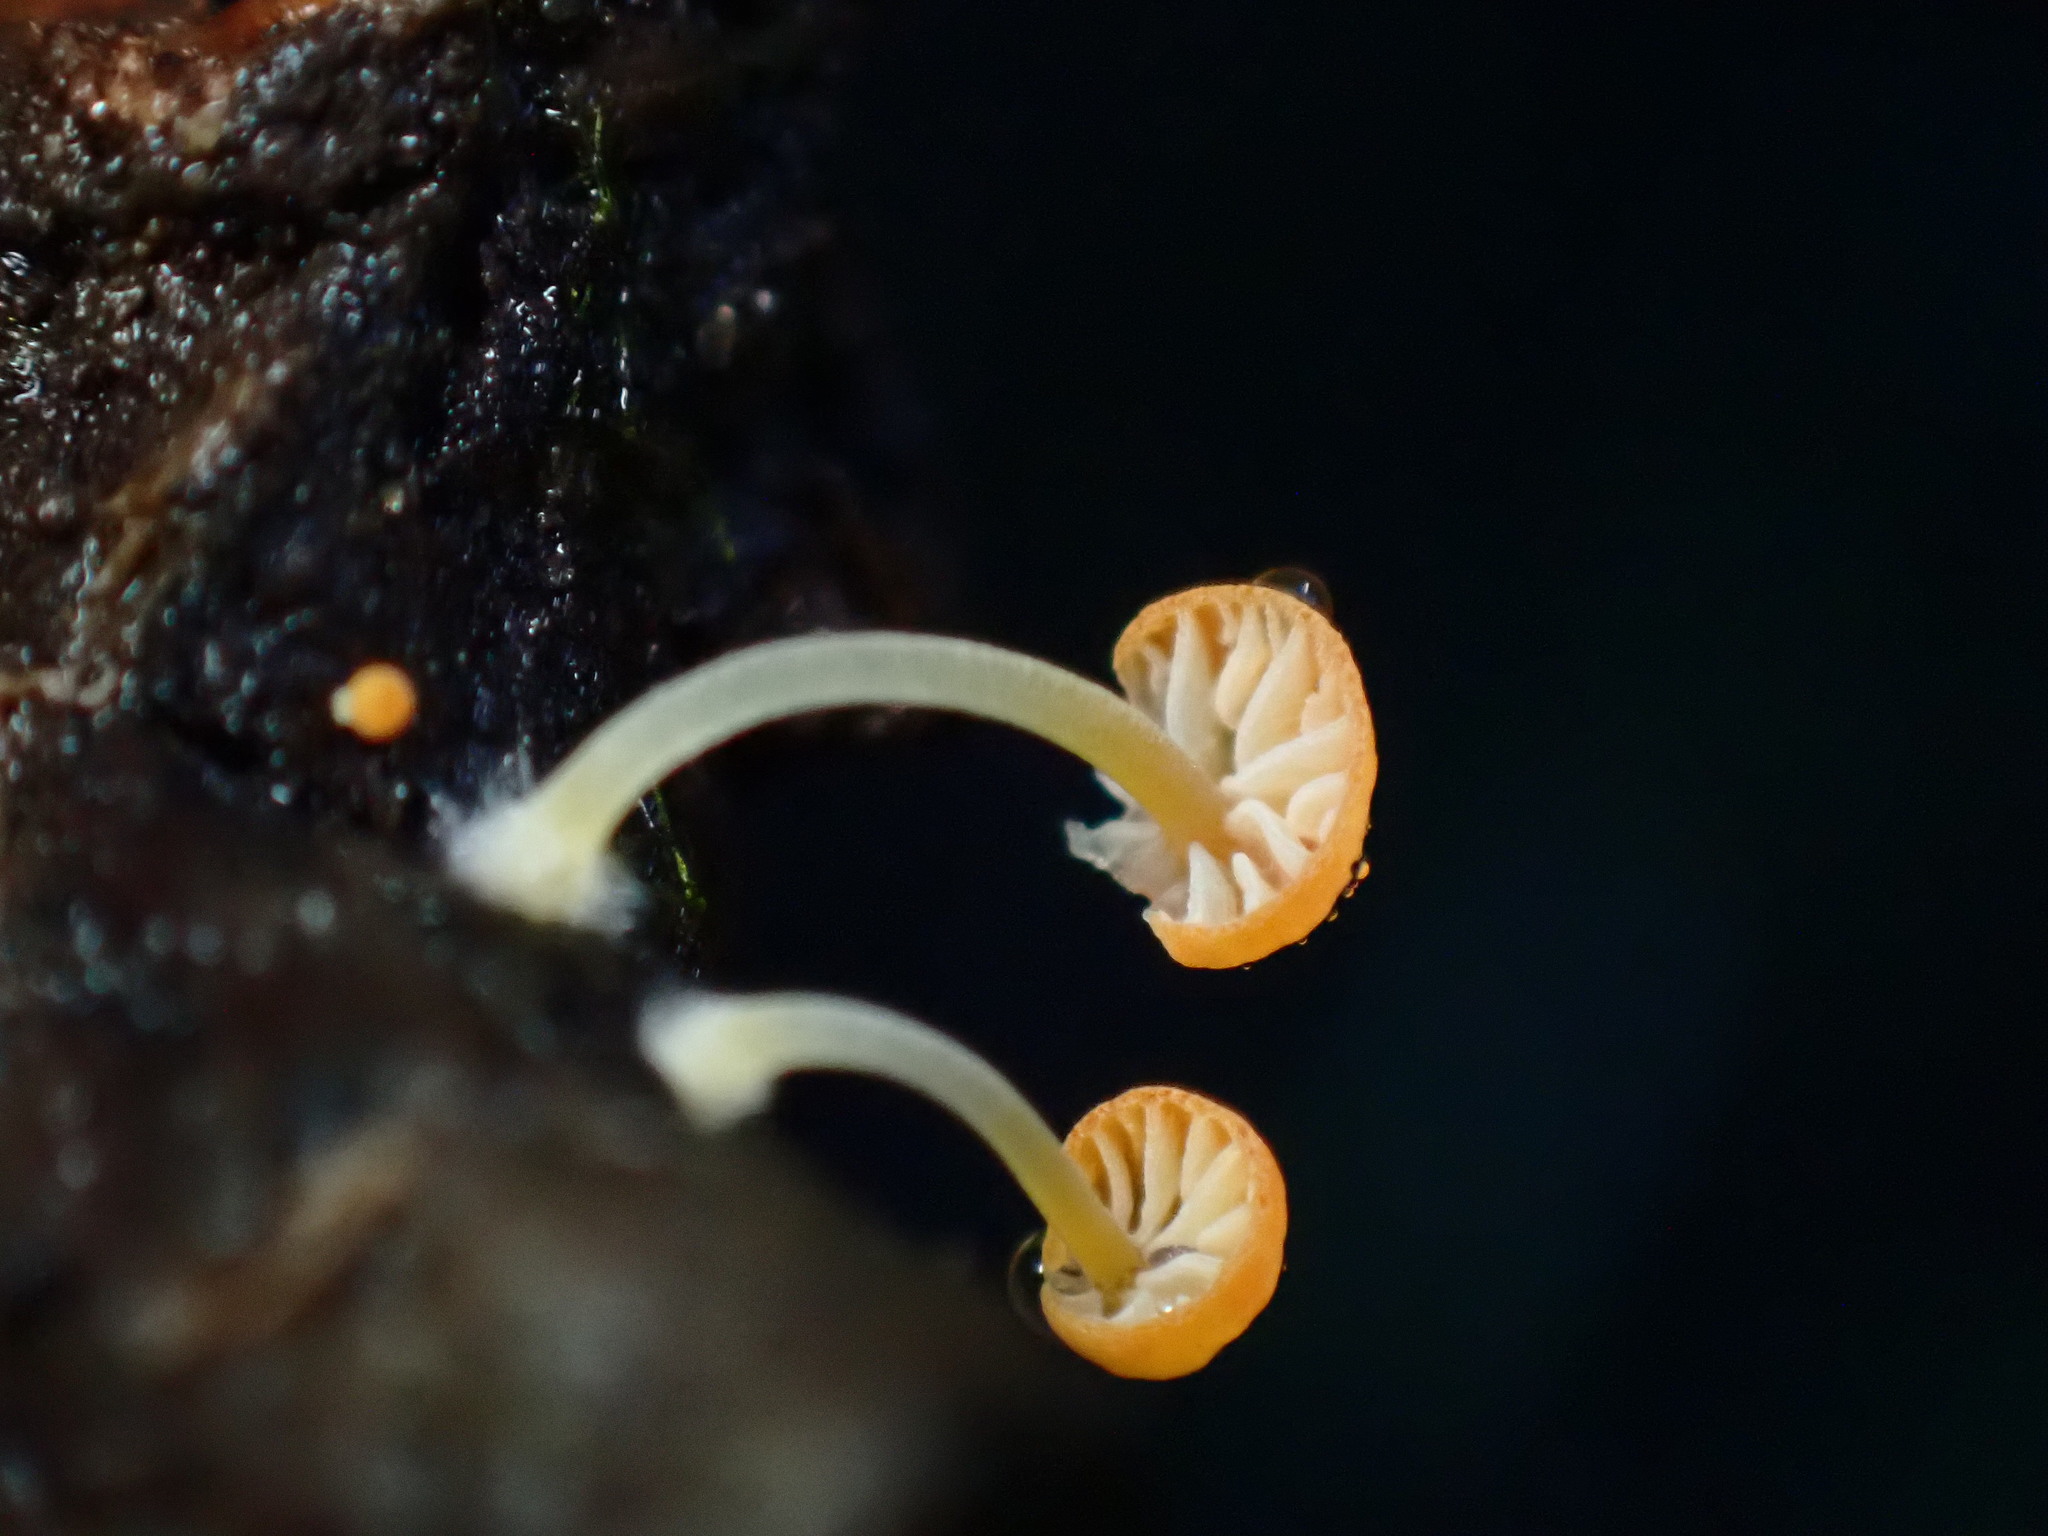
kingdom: Fungi
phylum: Basidiomycota
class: Agaricomycetes
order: Agaricales
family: Mycenaceae
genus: Mycena
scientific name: Mycena acicula
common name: Orange bonnet
